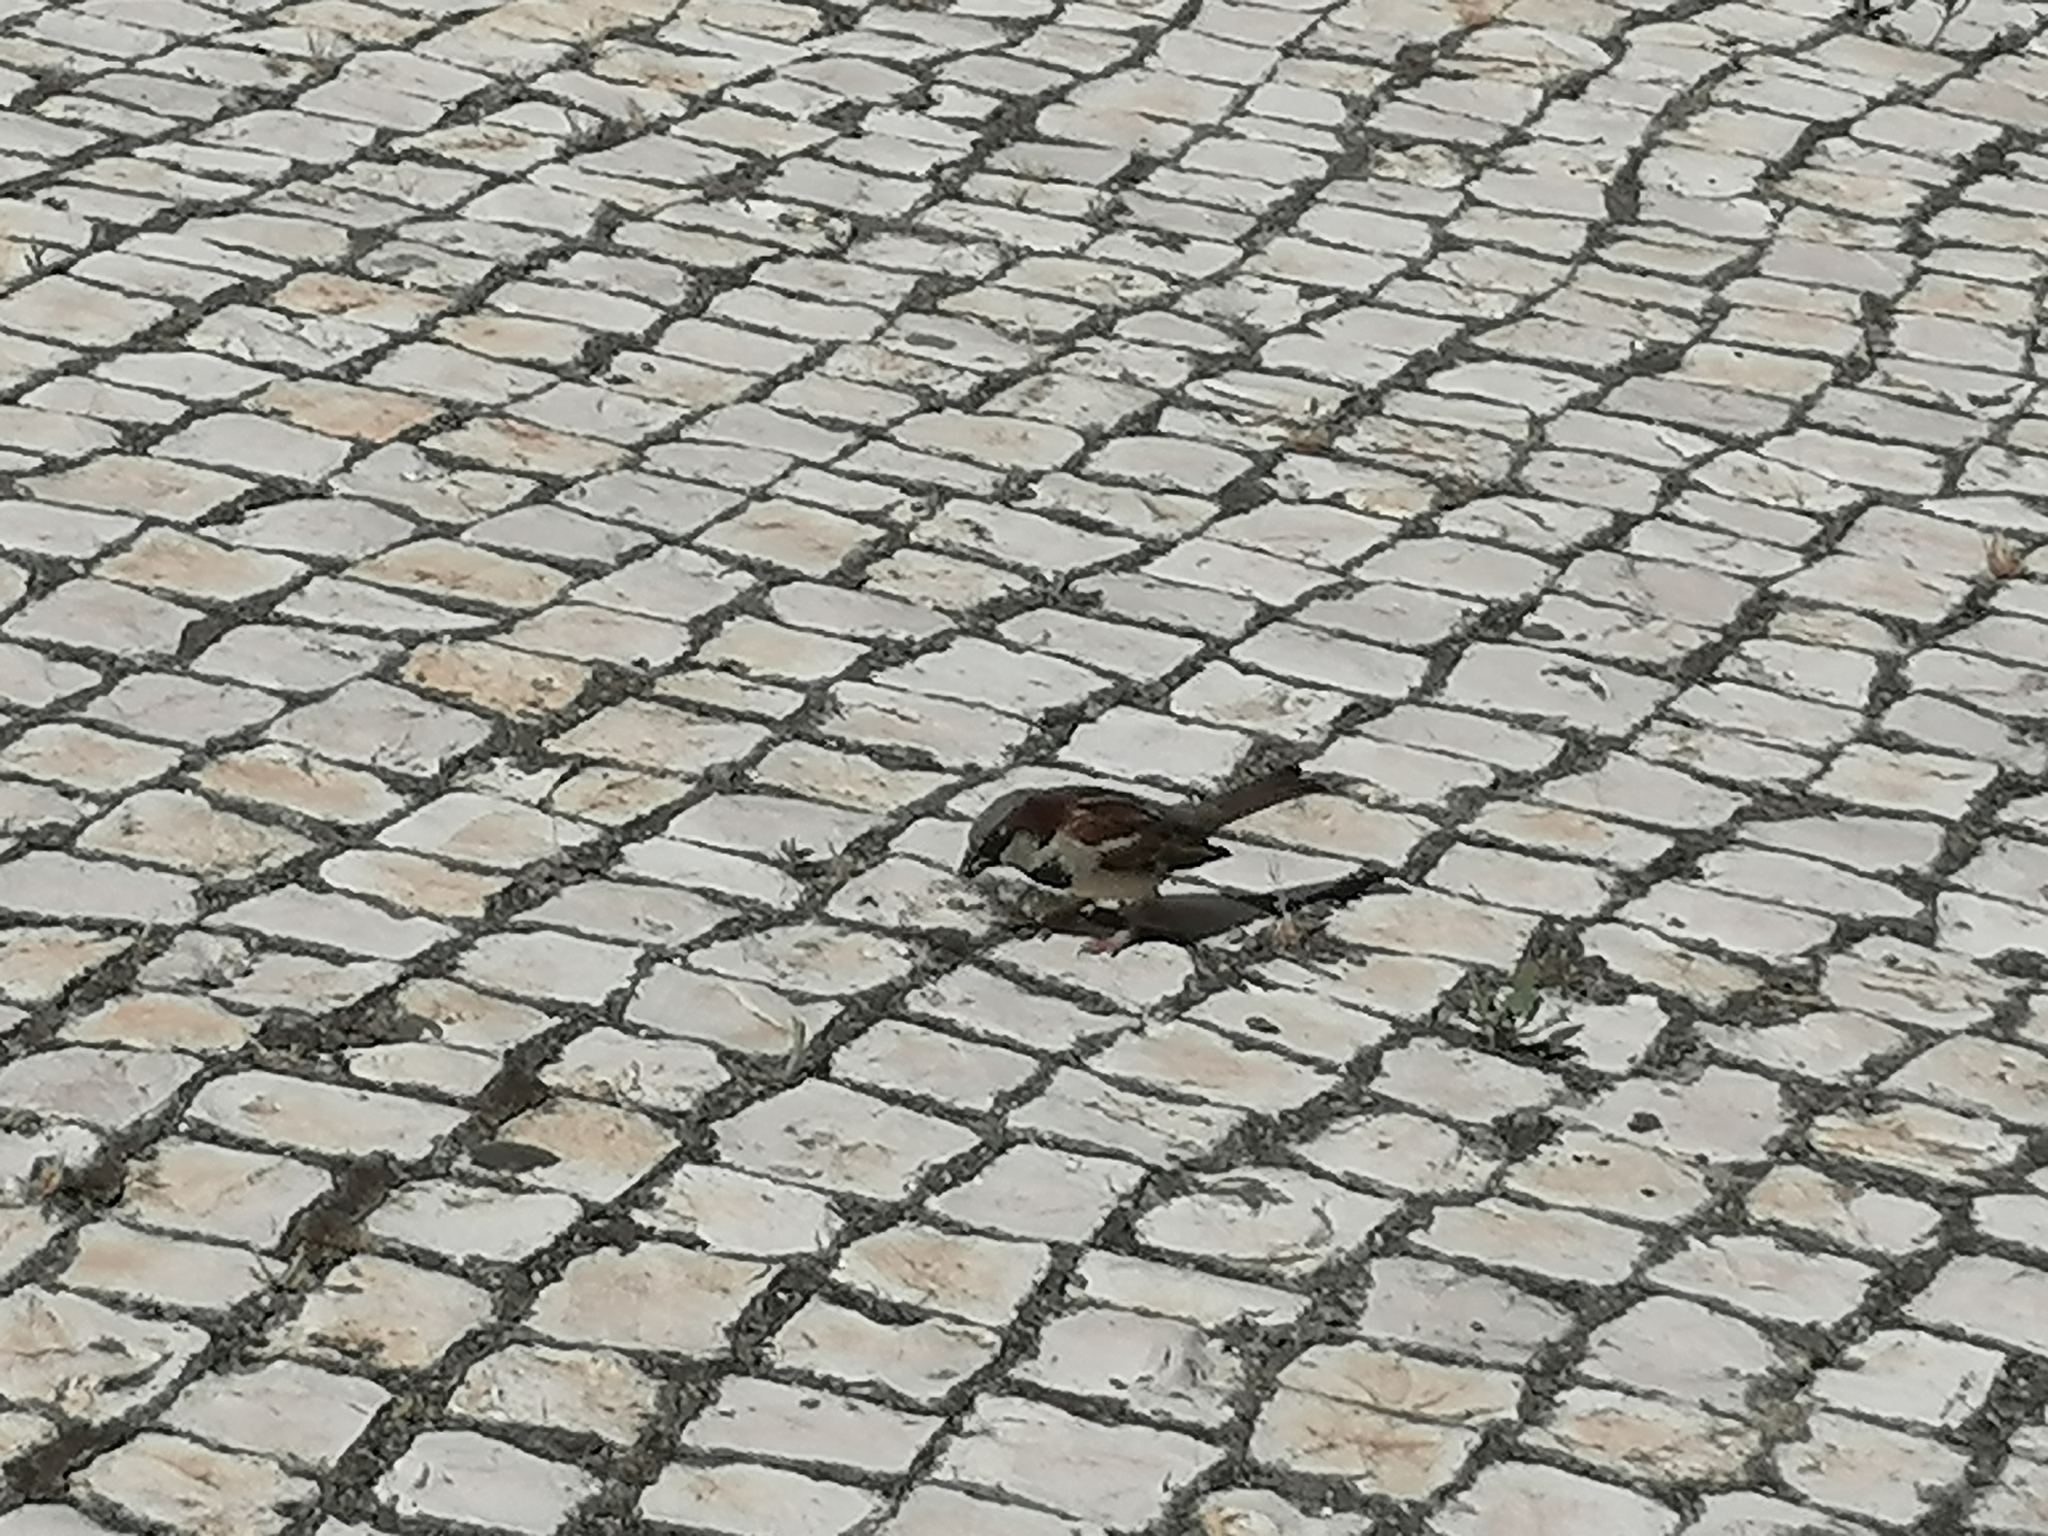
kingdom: Animalia
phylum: Chordata
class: Aves
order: Passeriformes
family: Passeridae
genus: Passer
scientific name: Passer domesticus
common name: House sparrow
